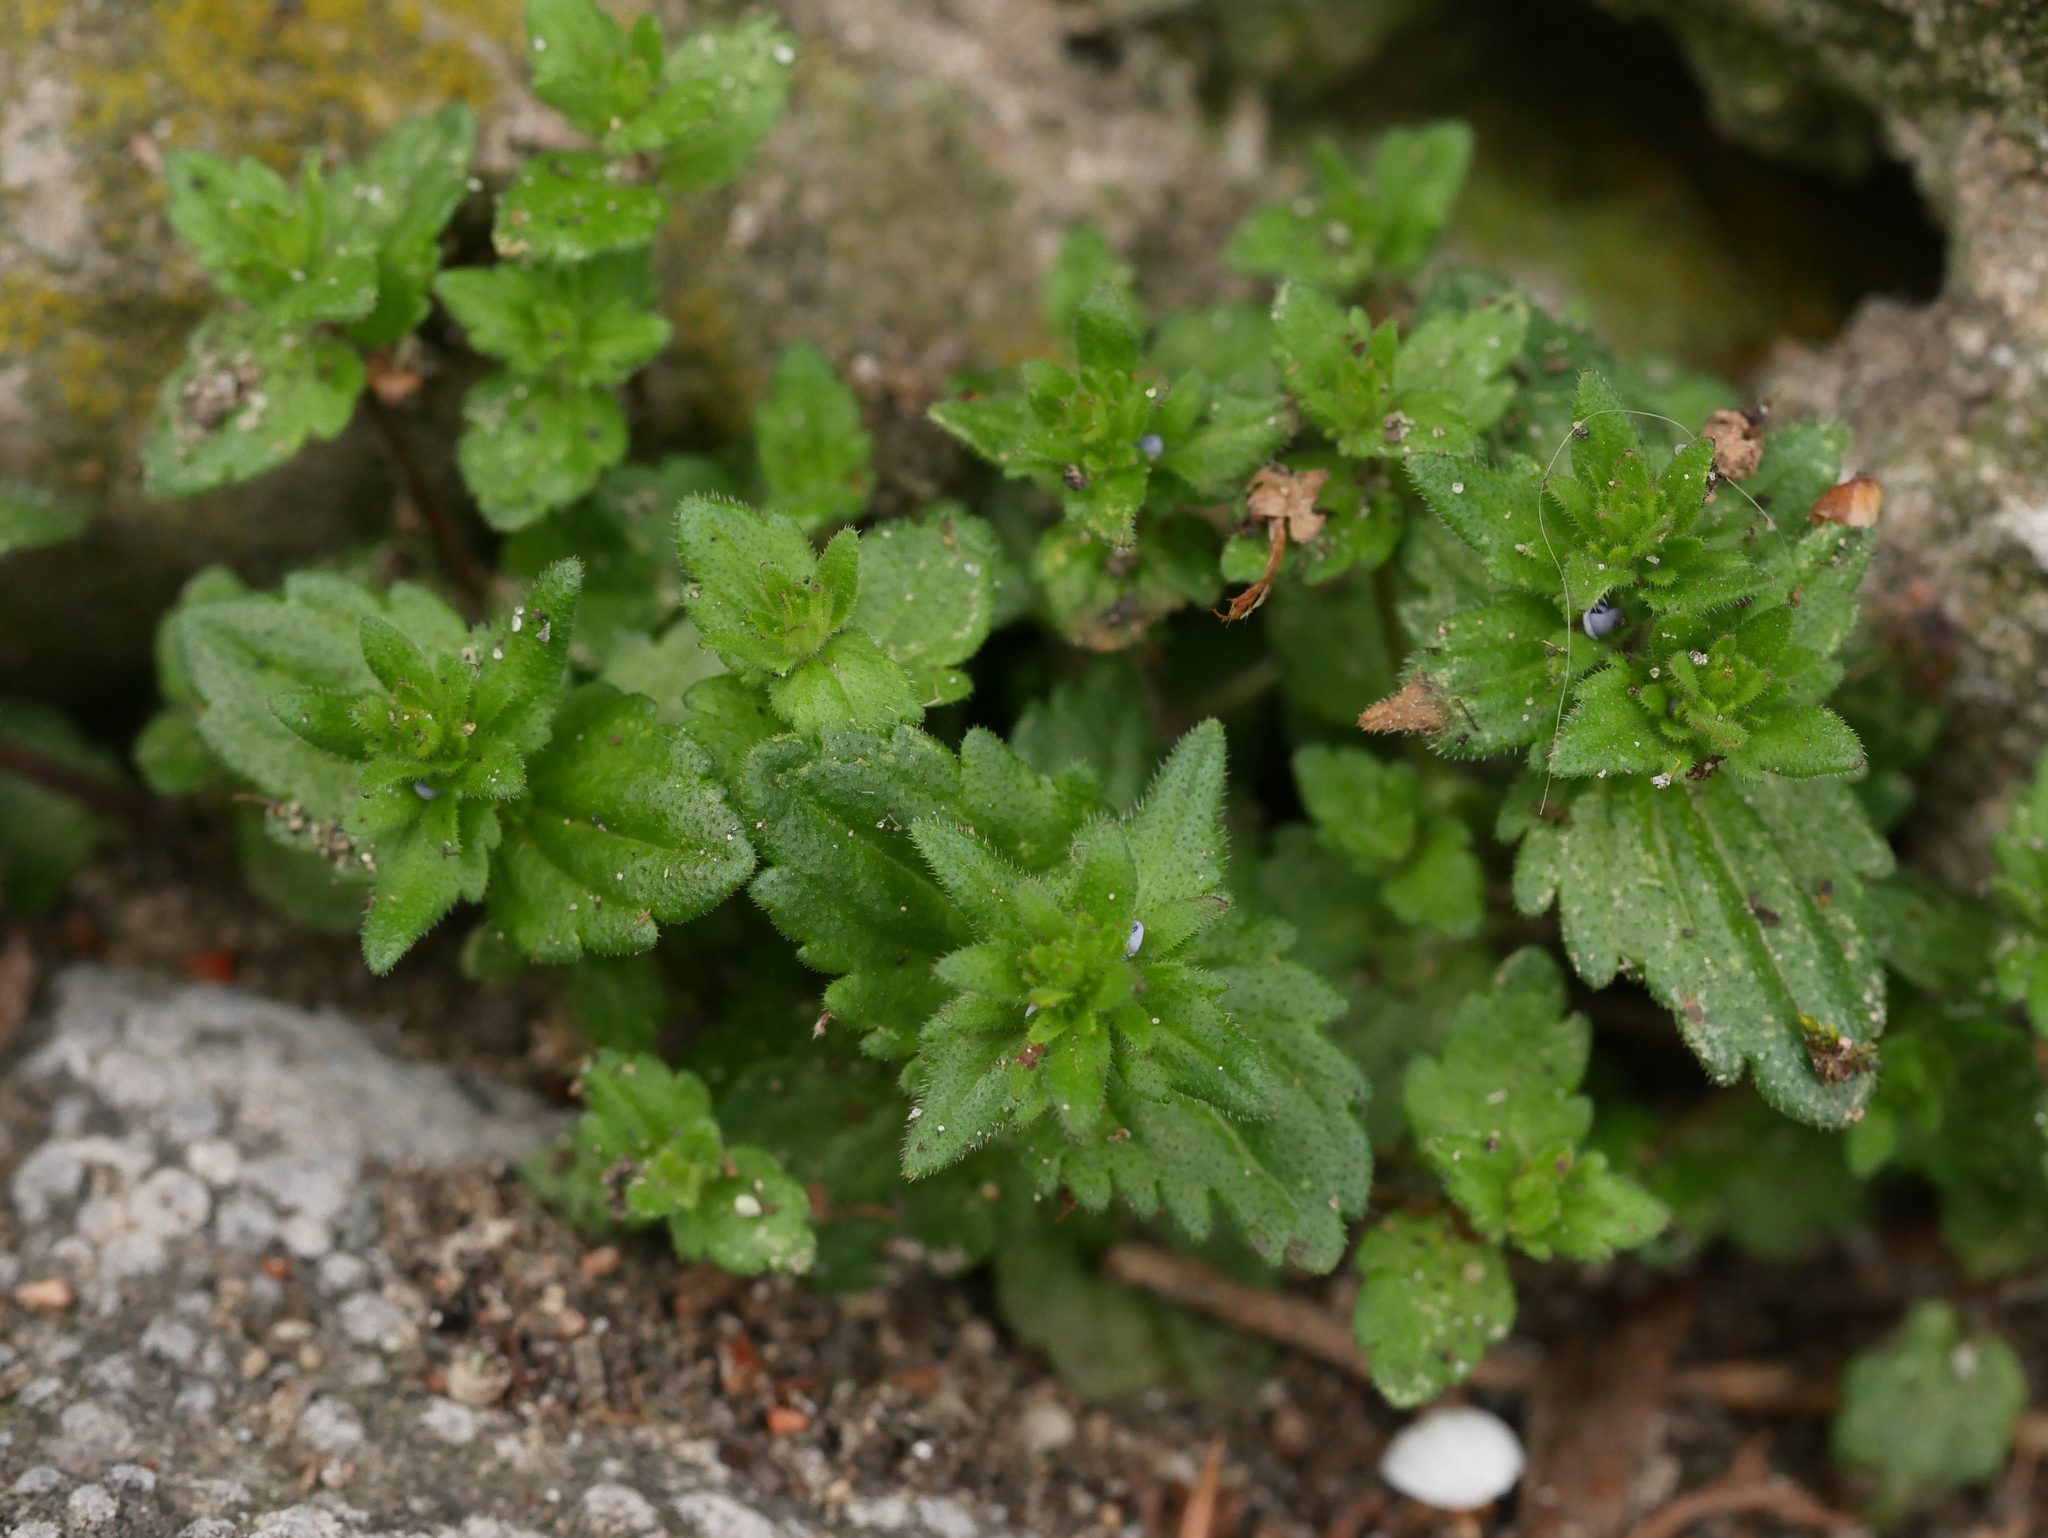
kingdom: Plantae
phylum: Tracheophyta
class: Magnoliopsida
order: Lamiales
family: Plantaginaceae
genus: Veronica
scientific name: Veronica arvensis
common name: Corn speedwell
